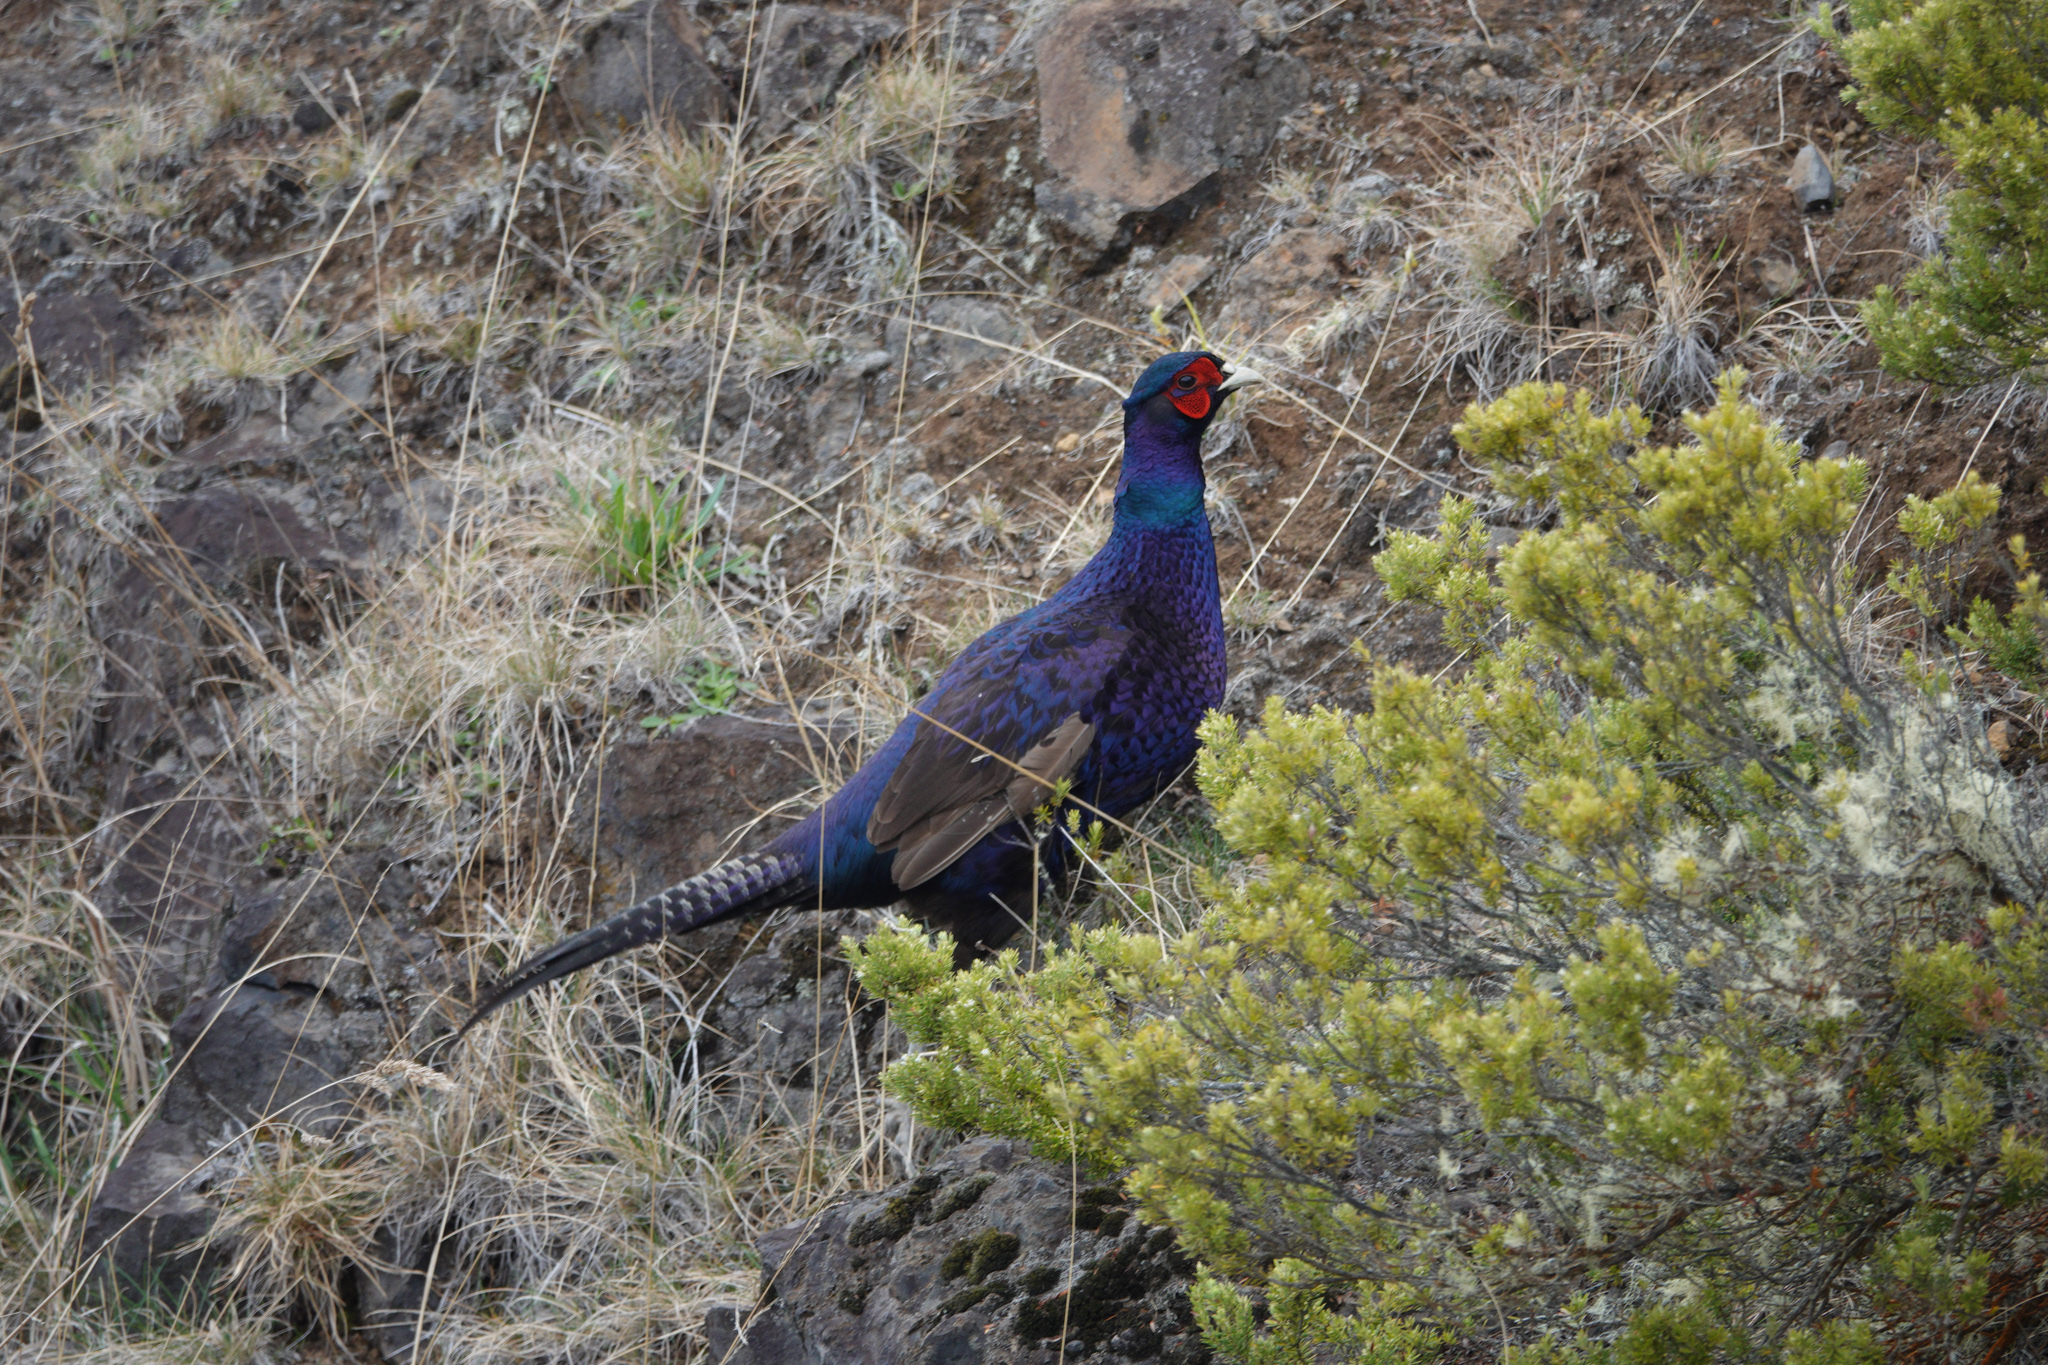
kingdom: Animalia
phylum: Chordata
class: Aves
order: Galliformes
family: Phasianidae
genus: Phasianus
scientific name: Phasianus colchicus
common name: Common pheasant
